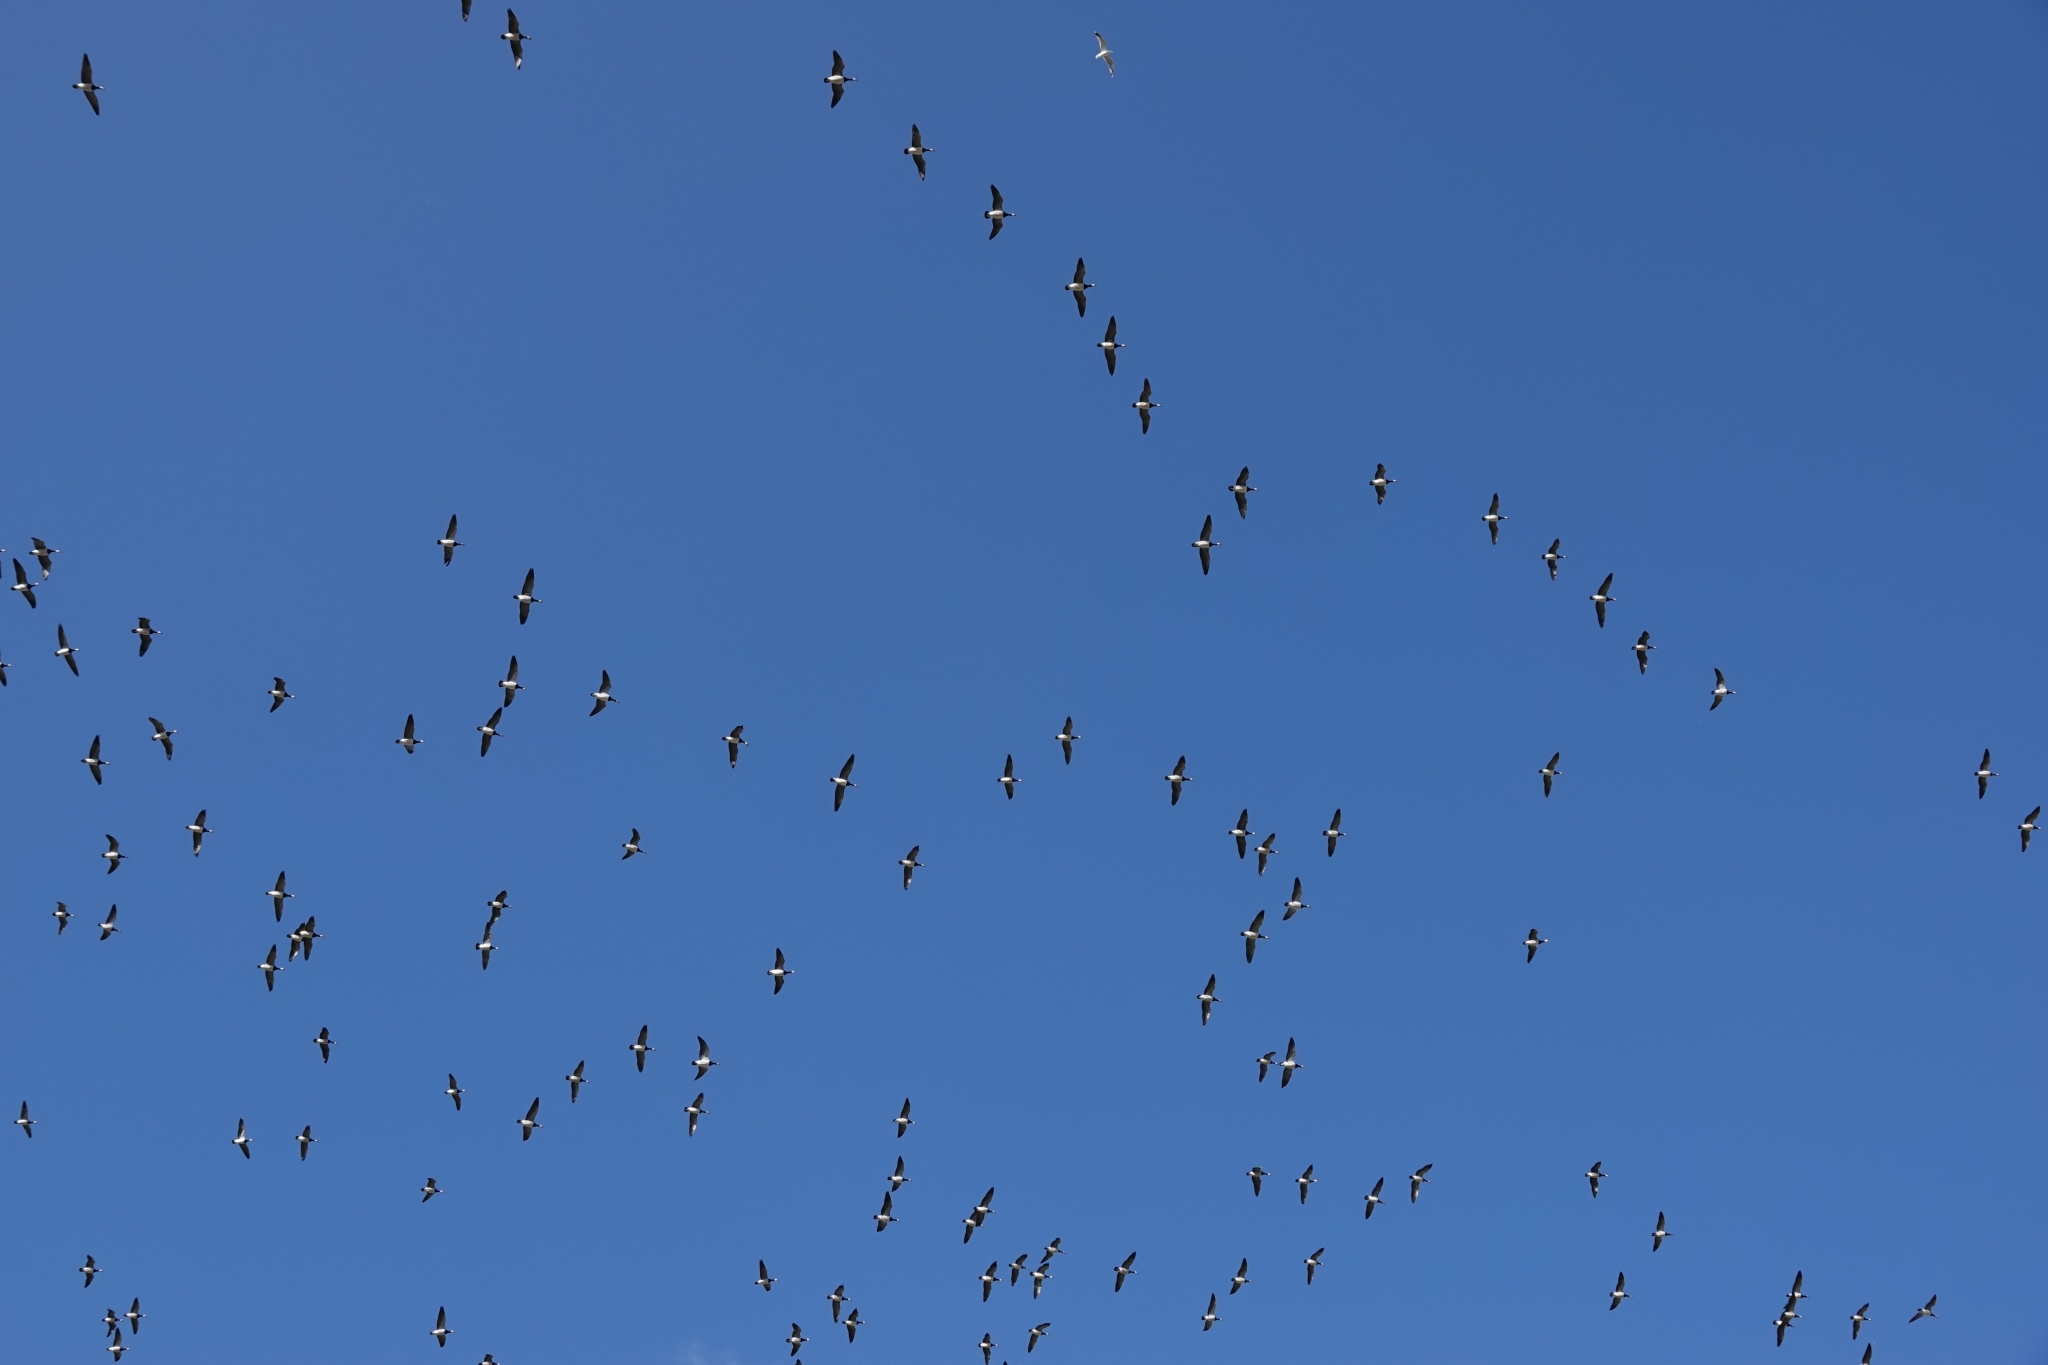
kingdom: Animalia
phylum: Chordata
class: Aves
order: Anseriformes
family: Anatidae
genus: Branta
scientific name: Branta leucopsis
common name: Barnacle goose
